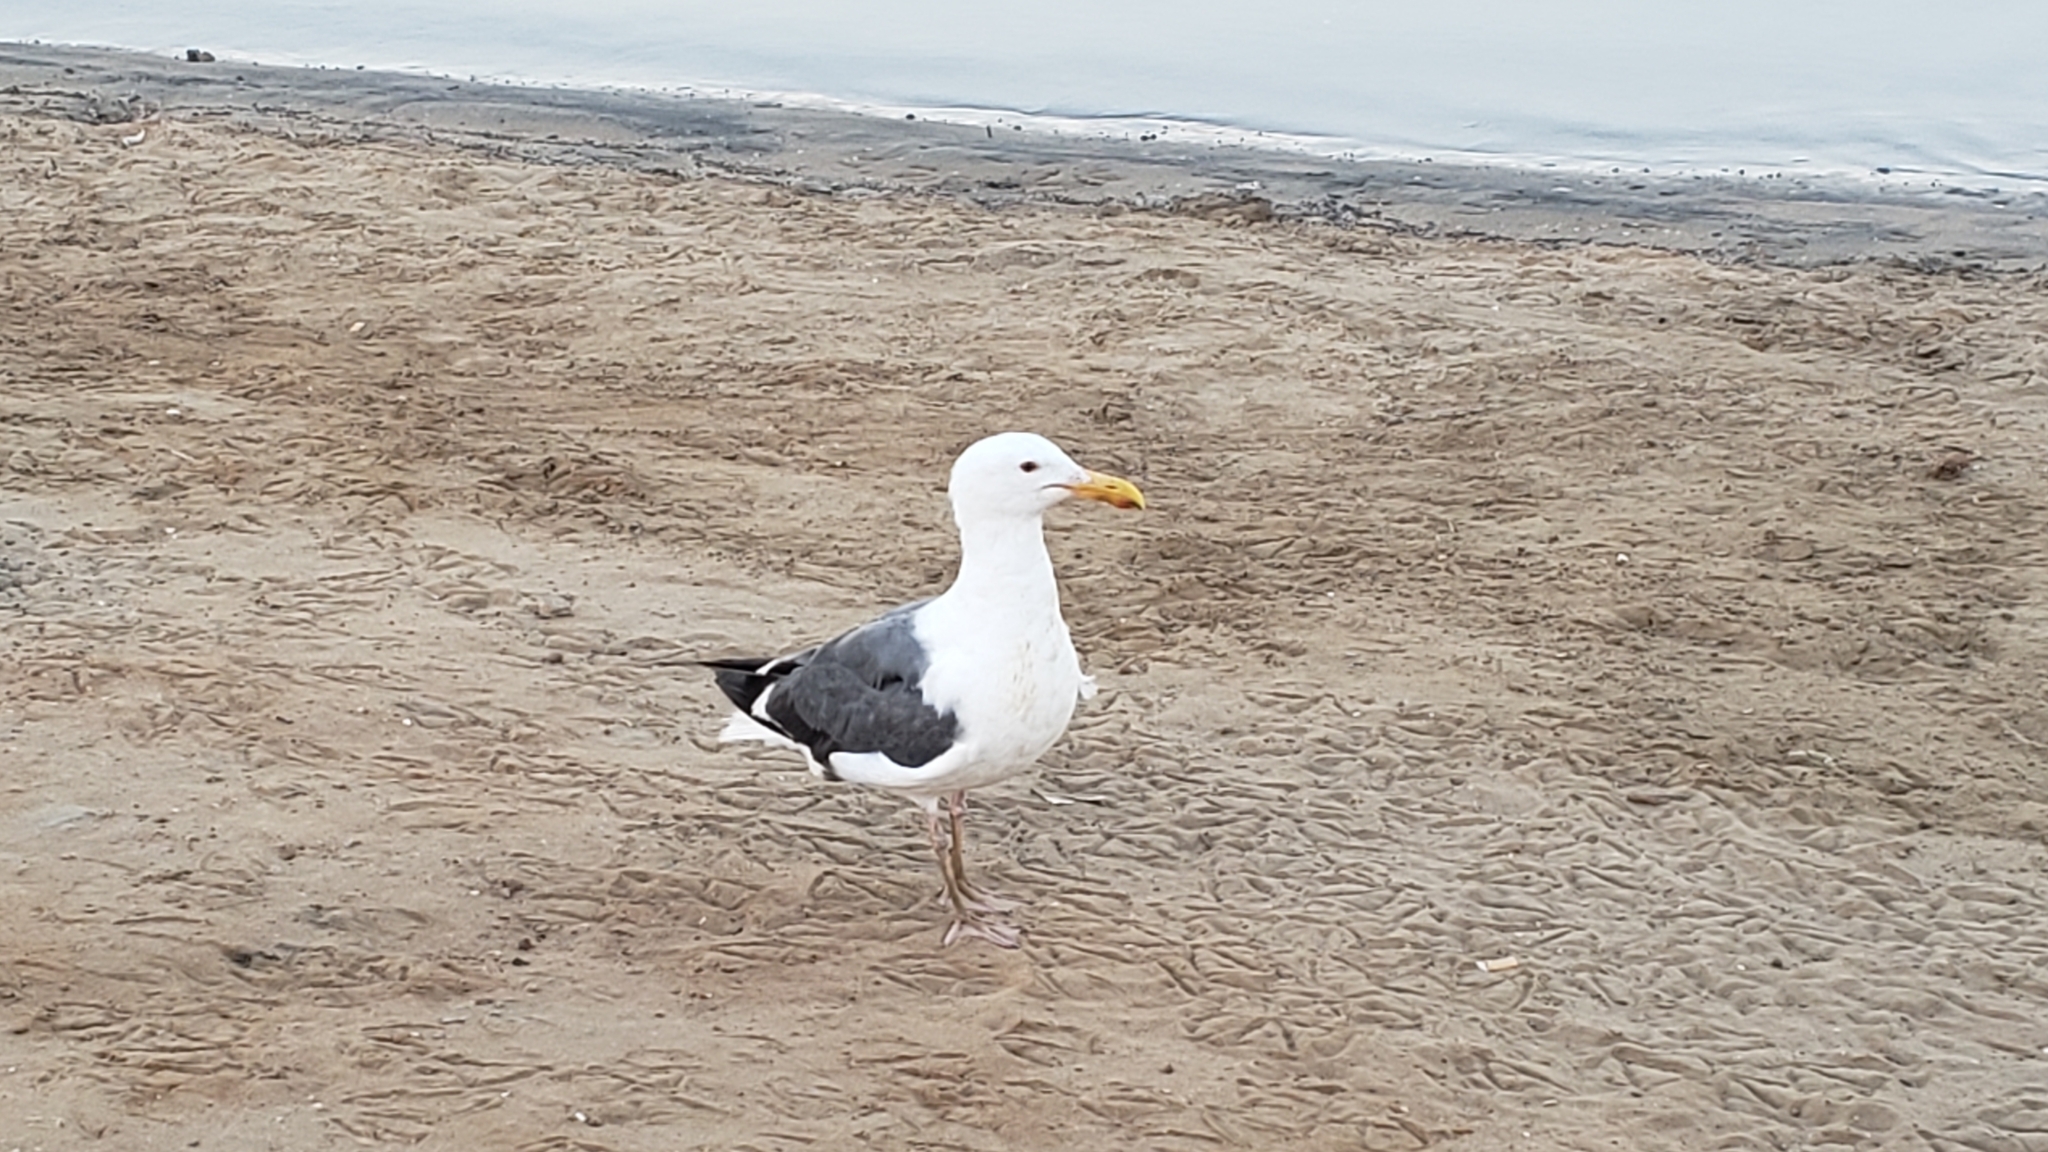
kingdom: Animalia
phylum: Chordata
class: Aves
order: Charadriiformes
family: Laridae
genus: Larus
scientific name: Larus occidentalis
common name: Western gull
